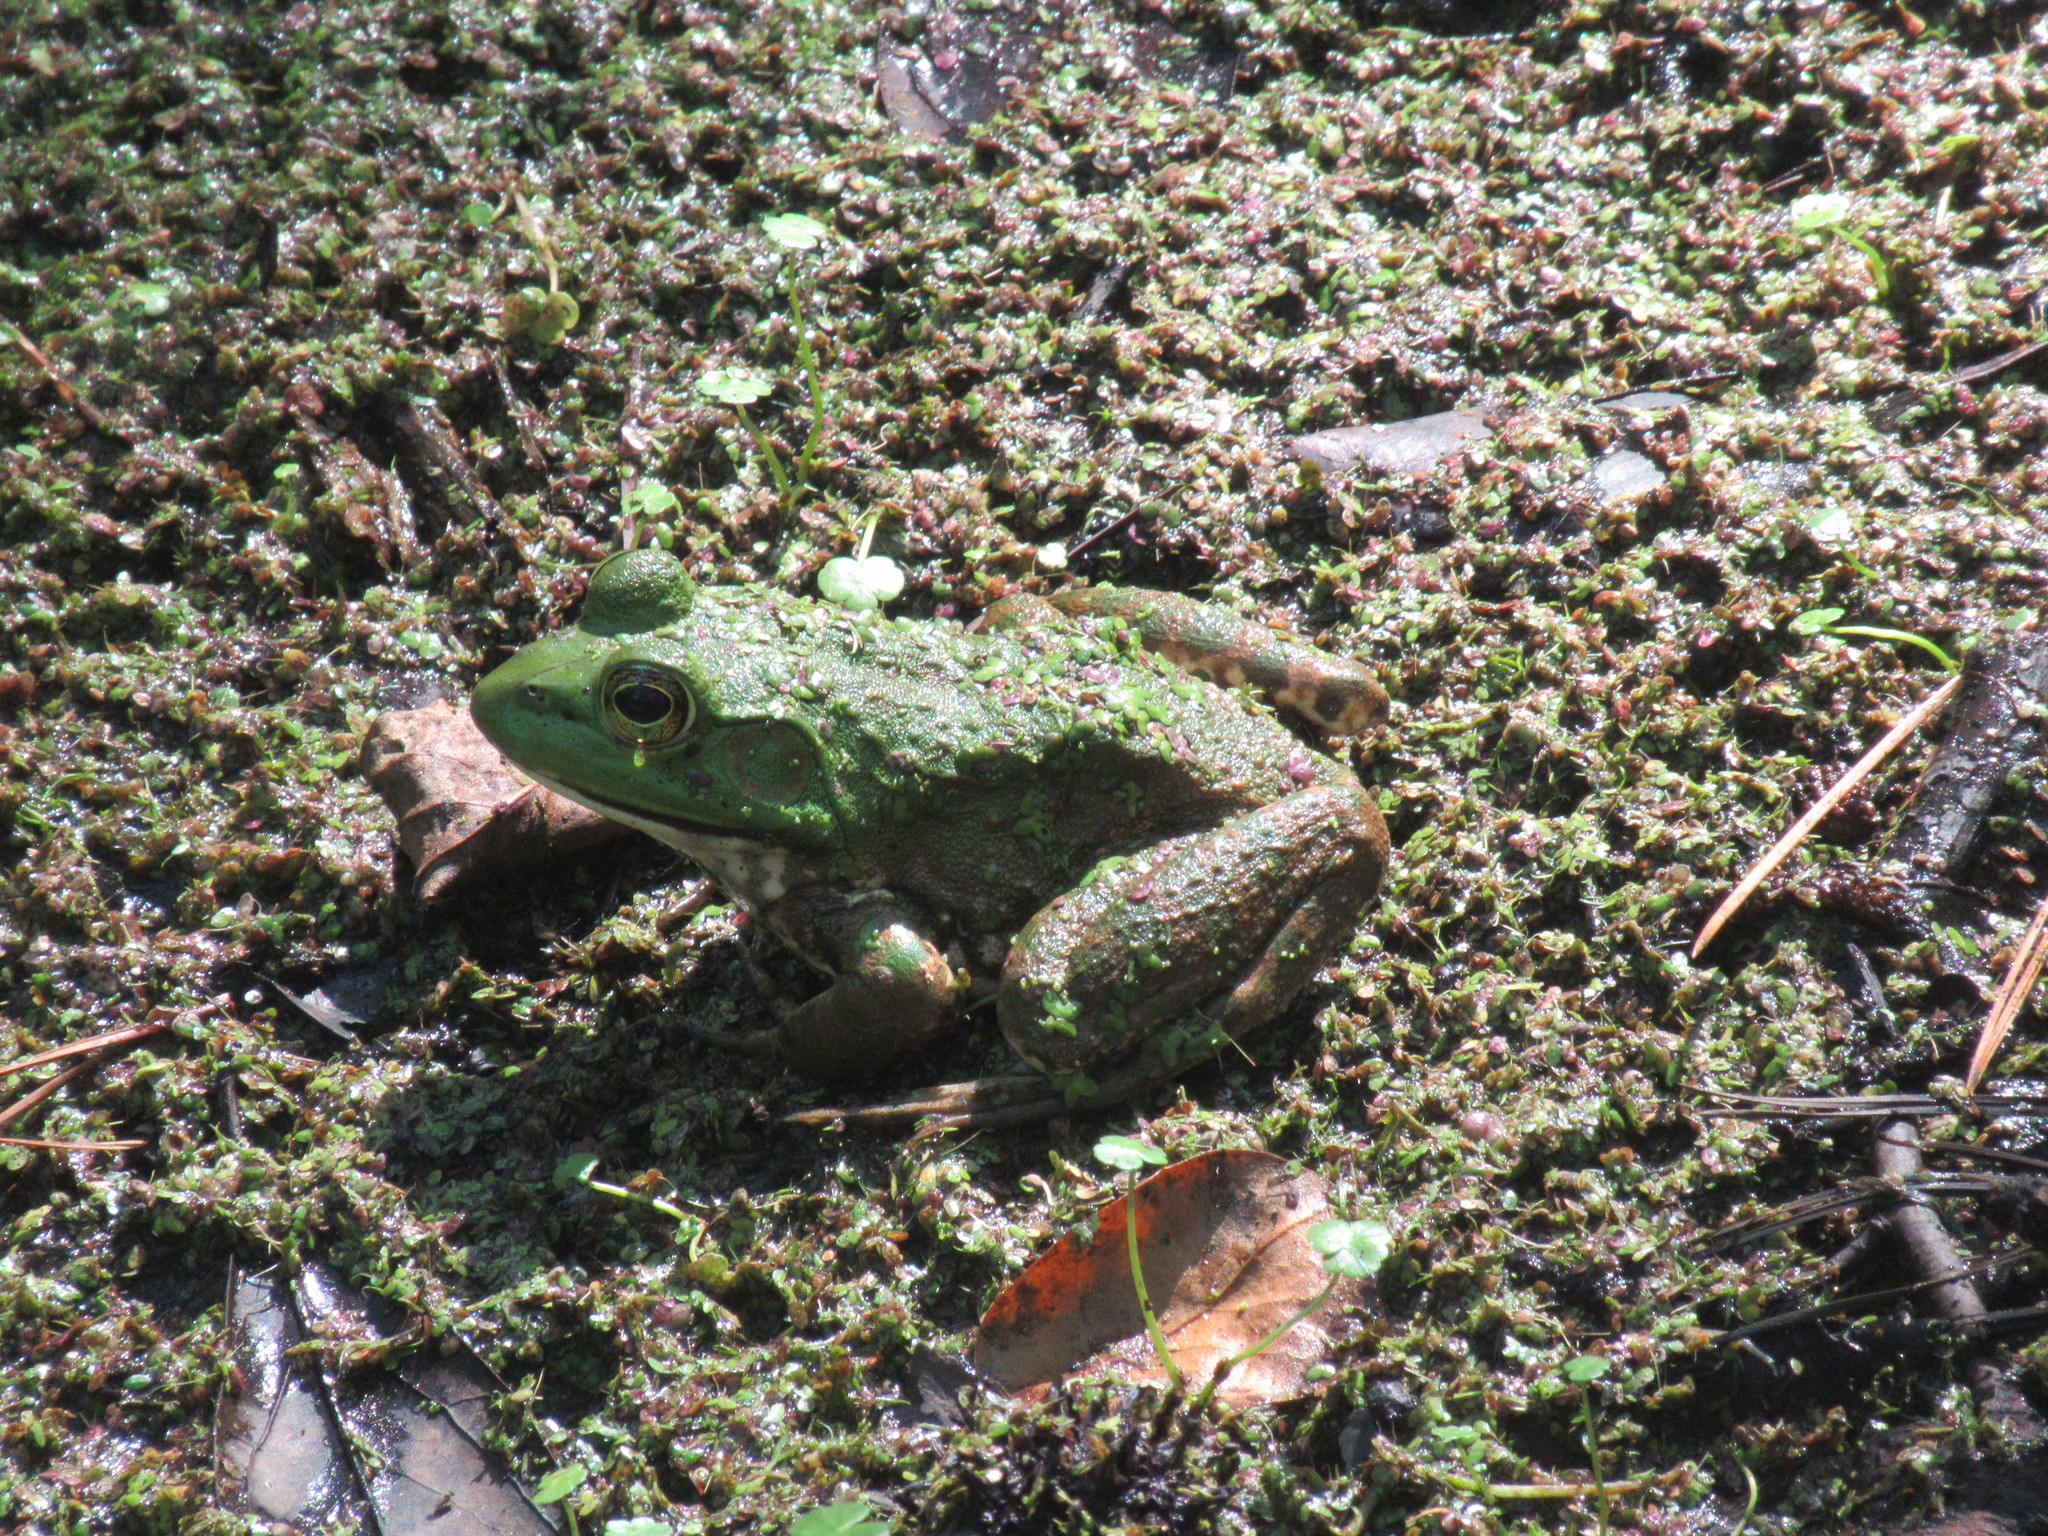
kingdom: Animalia
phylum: Chordata
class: Amphibia
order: Anura
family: Ranidae
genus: Lithobates
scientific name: Lithobates catesbeianus
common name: American bullfrog
